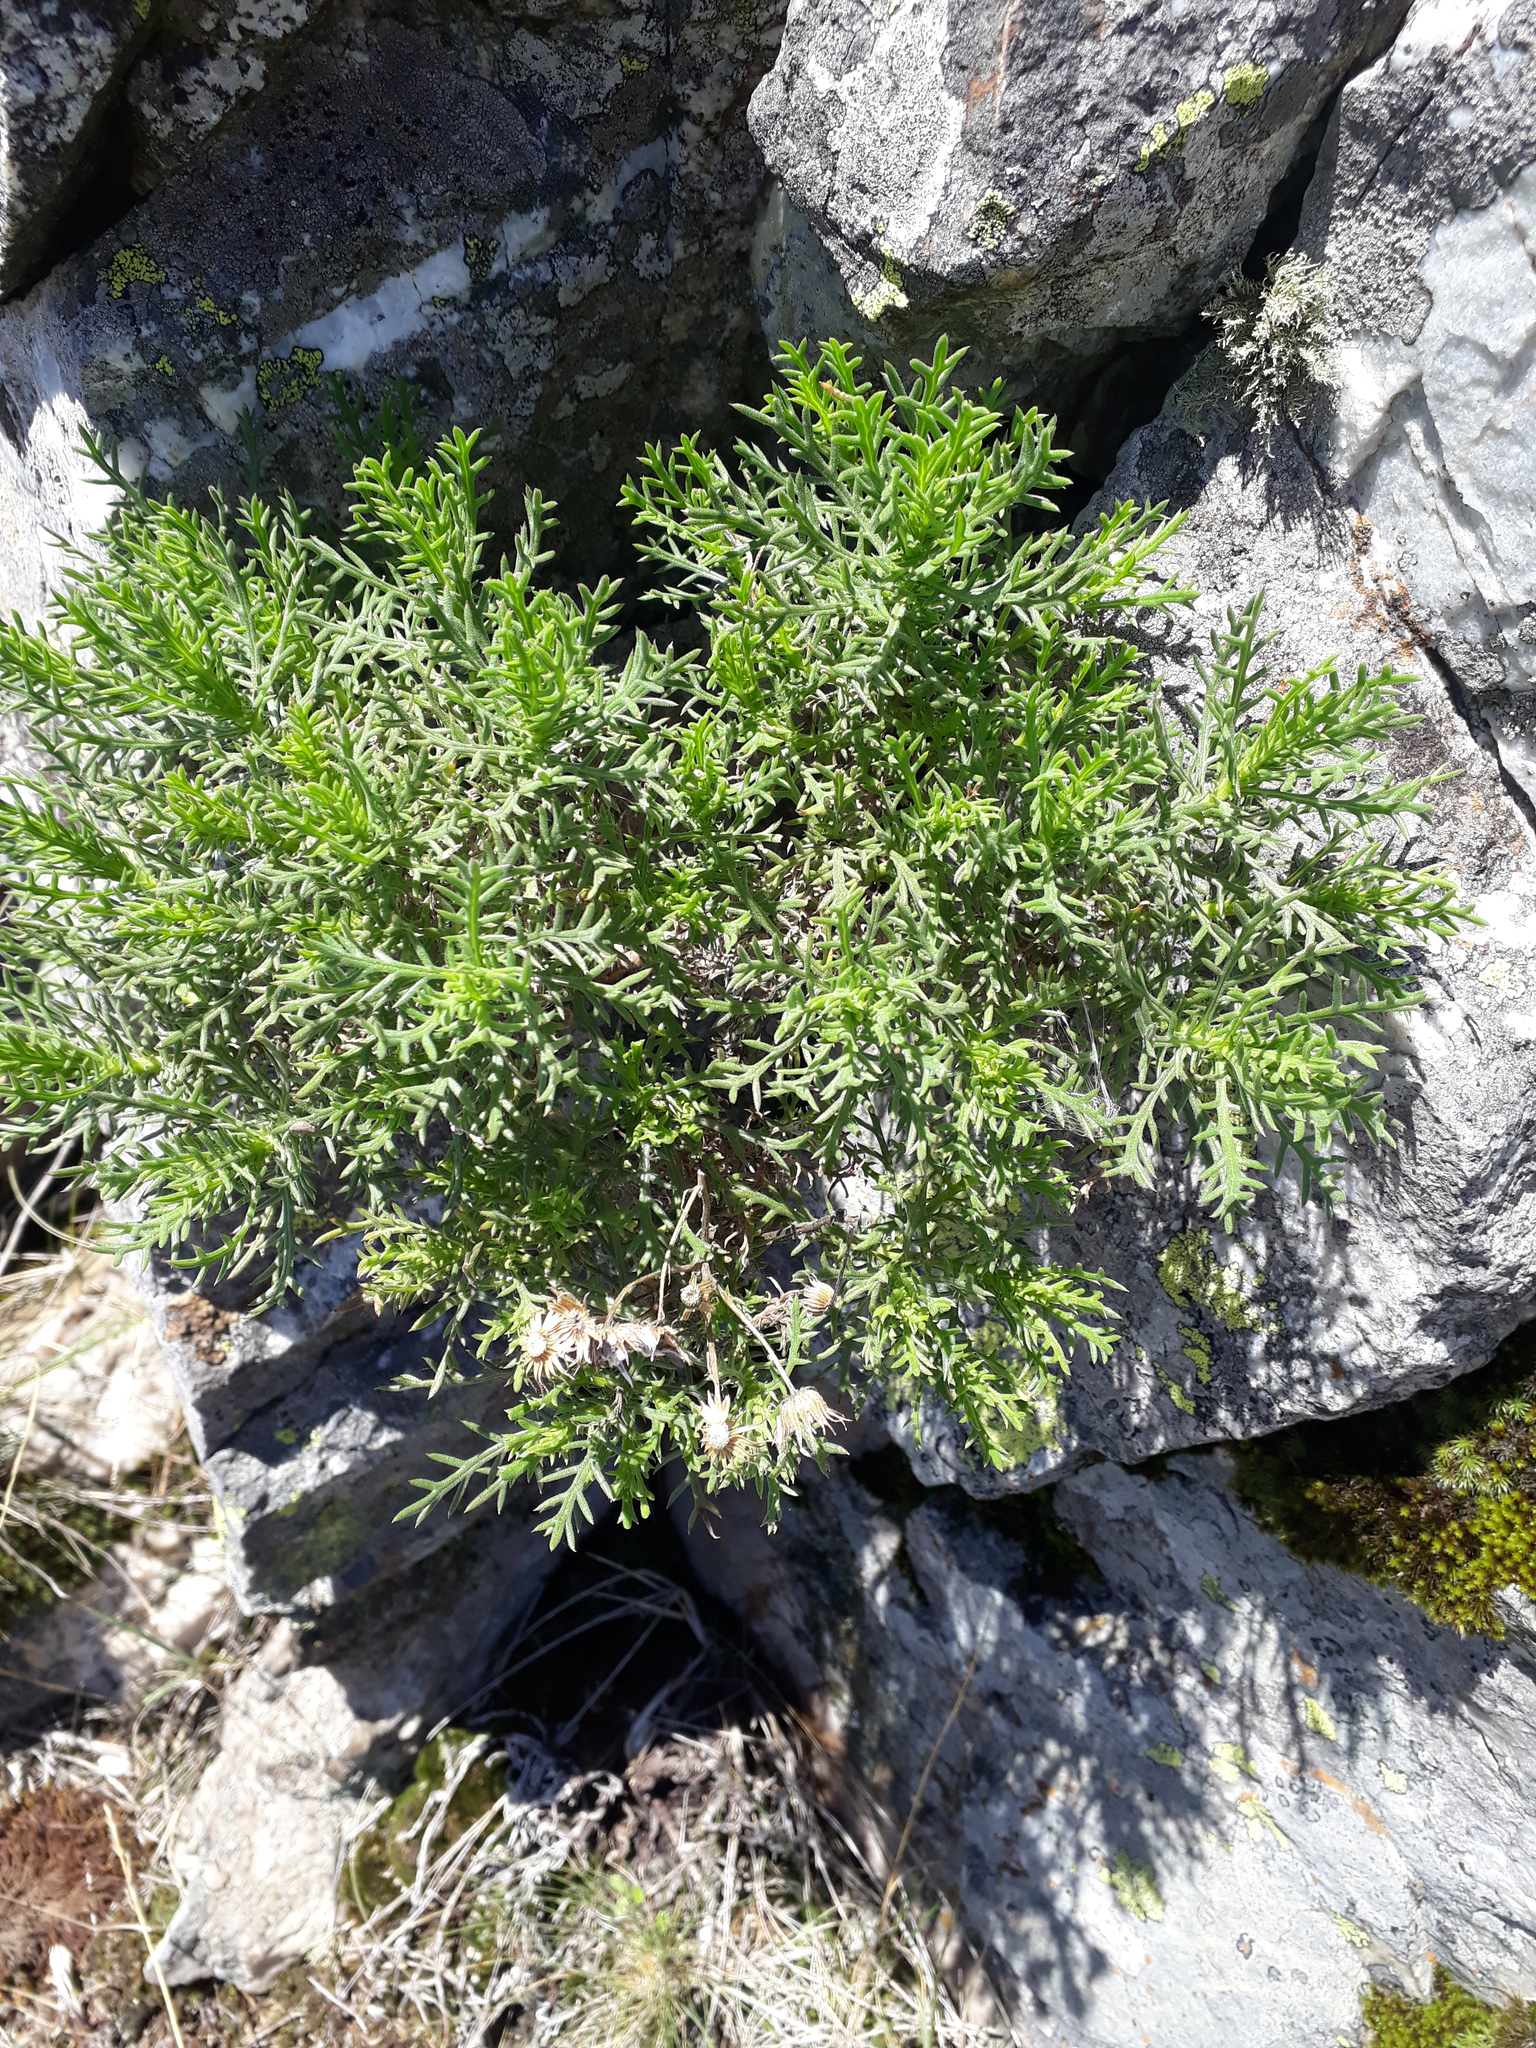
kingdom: Plantae
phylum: Tracheophyta
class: Magnoliopsida
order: Asterales
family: Asteraceae
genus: Senecio
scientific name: Senecio ventanensis
